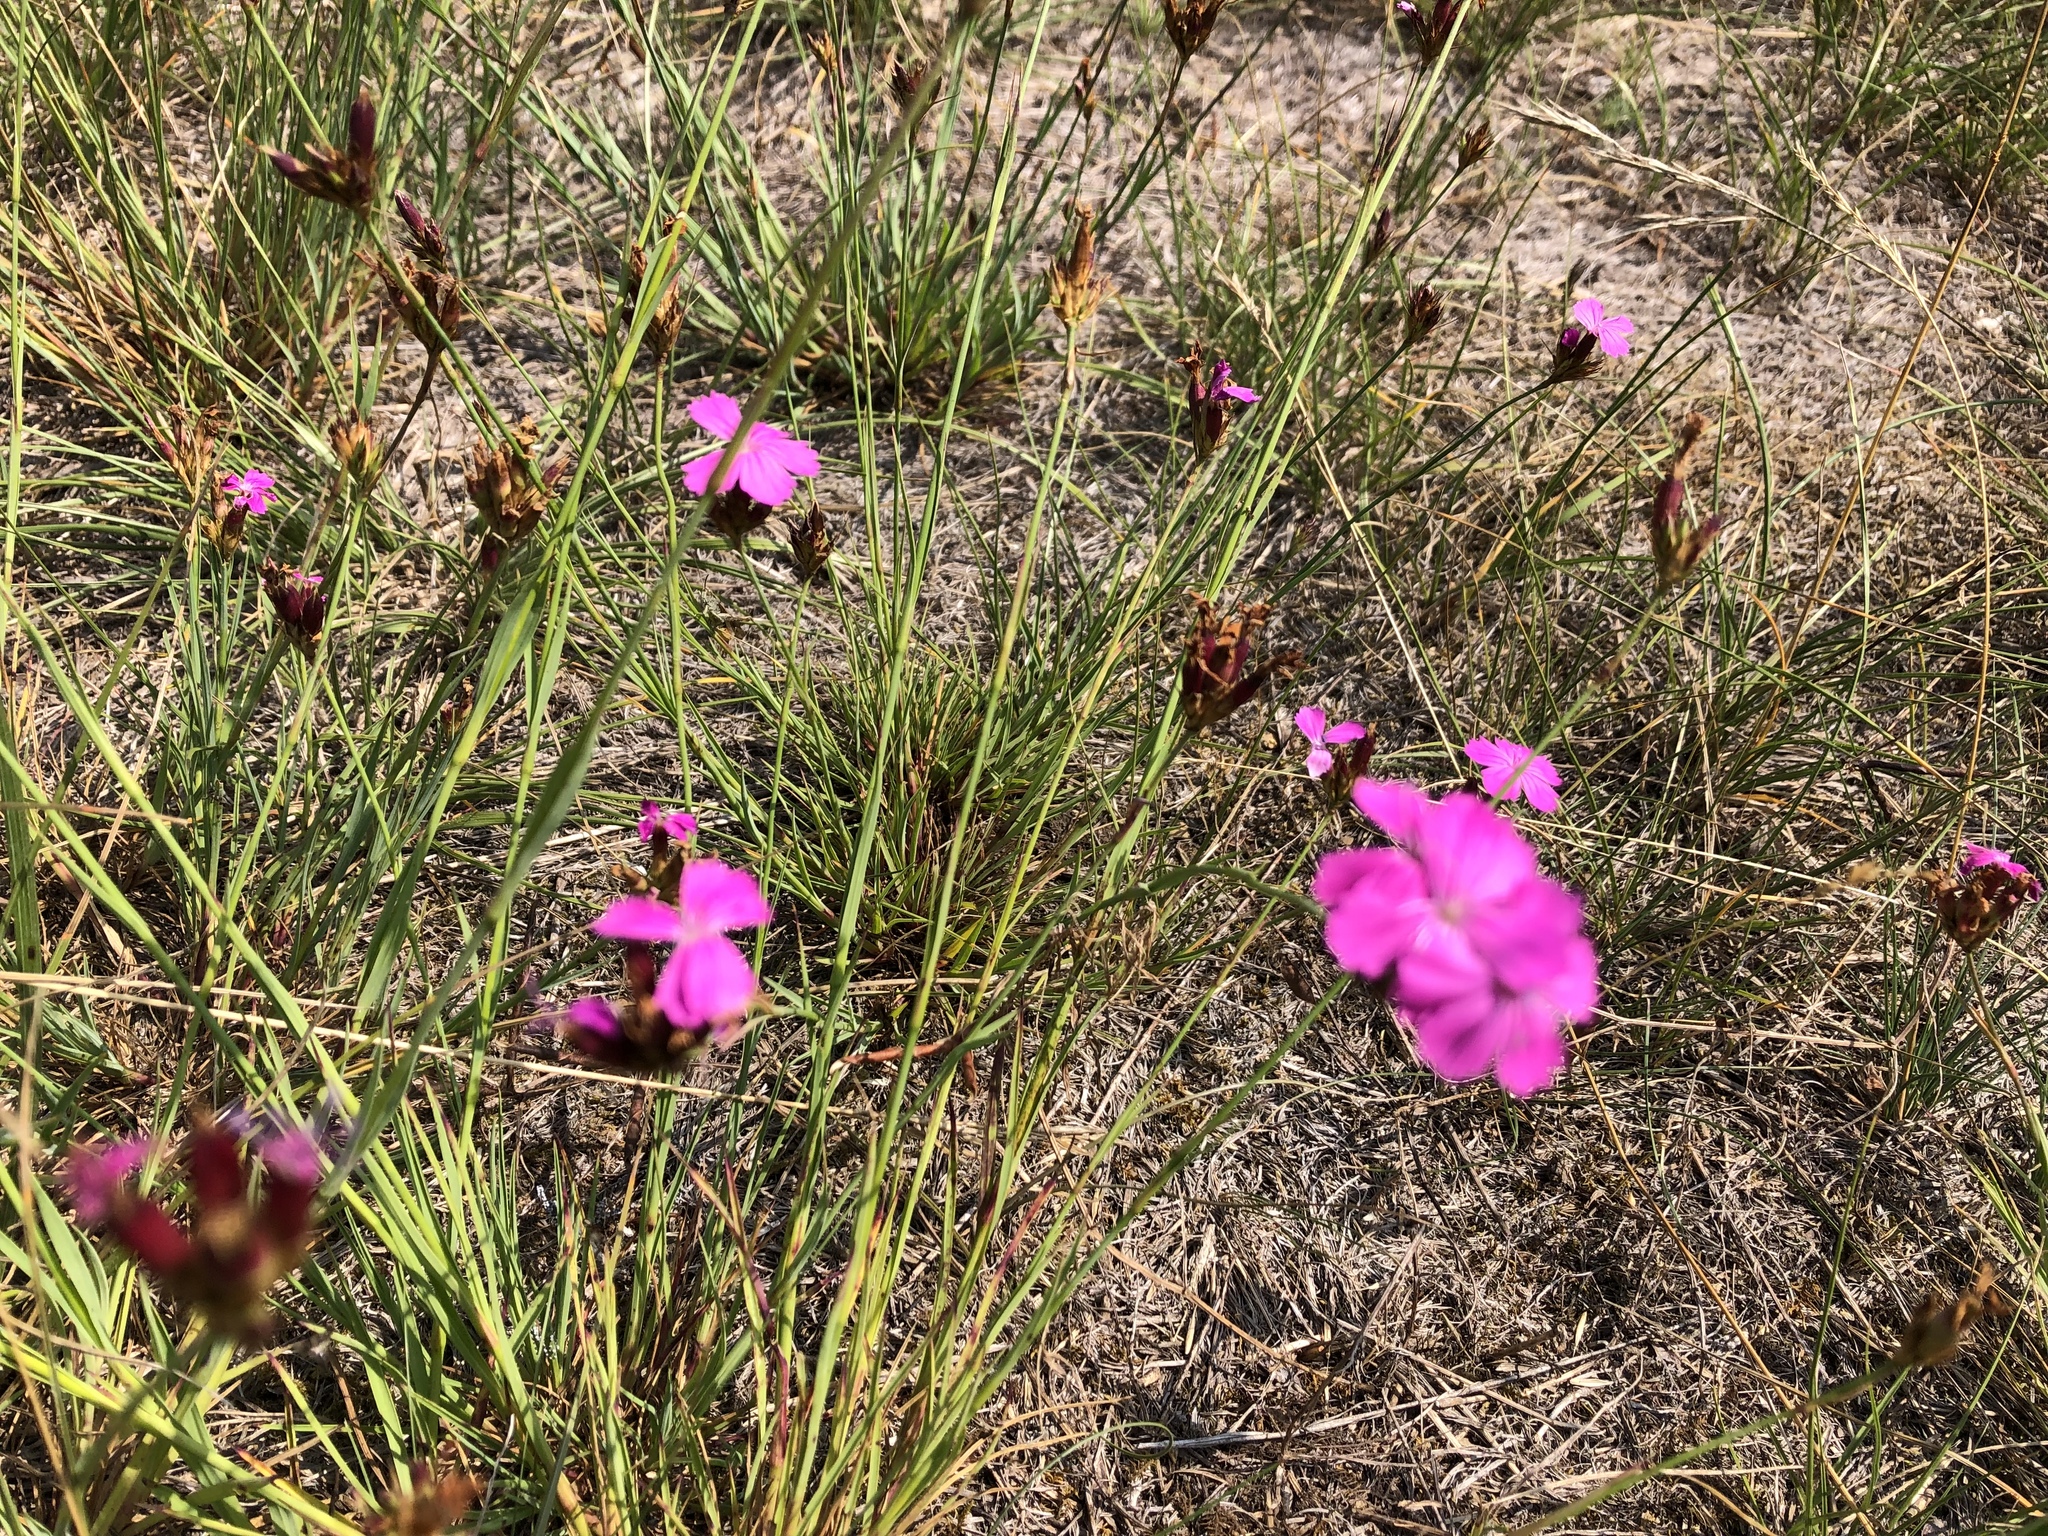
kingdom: Plantae
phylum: Tracheophyta
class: Magnoliopsida
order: Caryophyllales
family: Caryophyllaceae
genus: Dianthus
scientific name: Dianthus carthusianorum
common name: Carthusian pink
